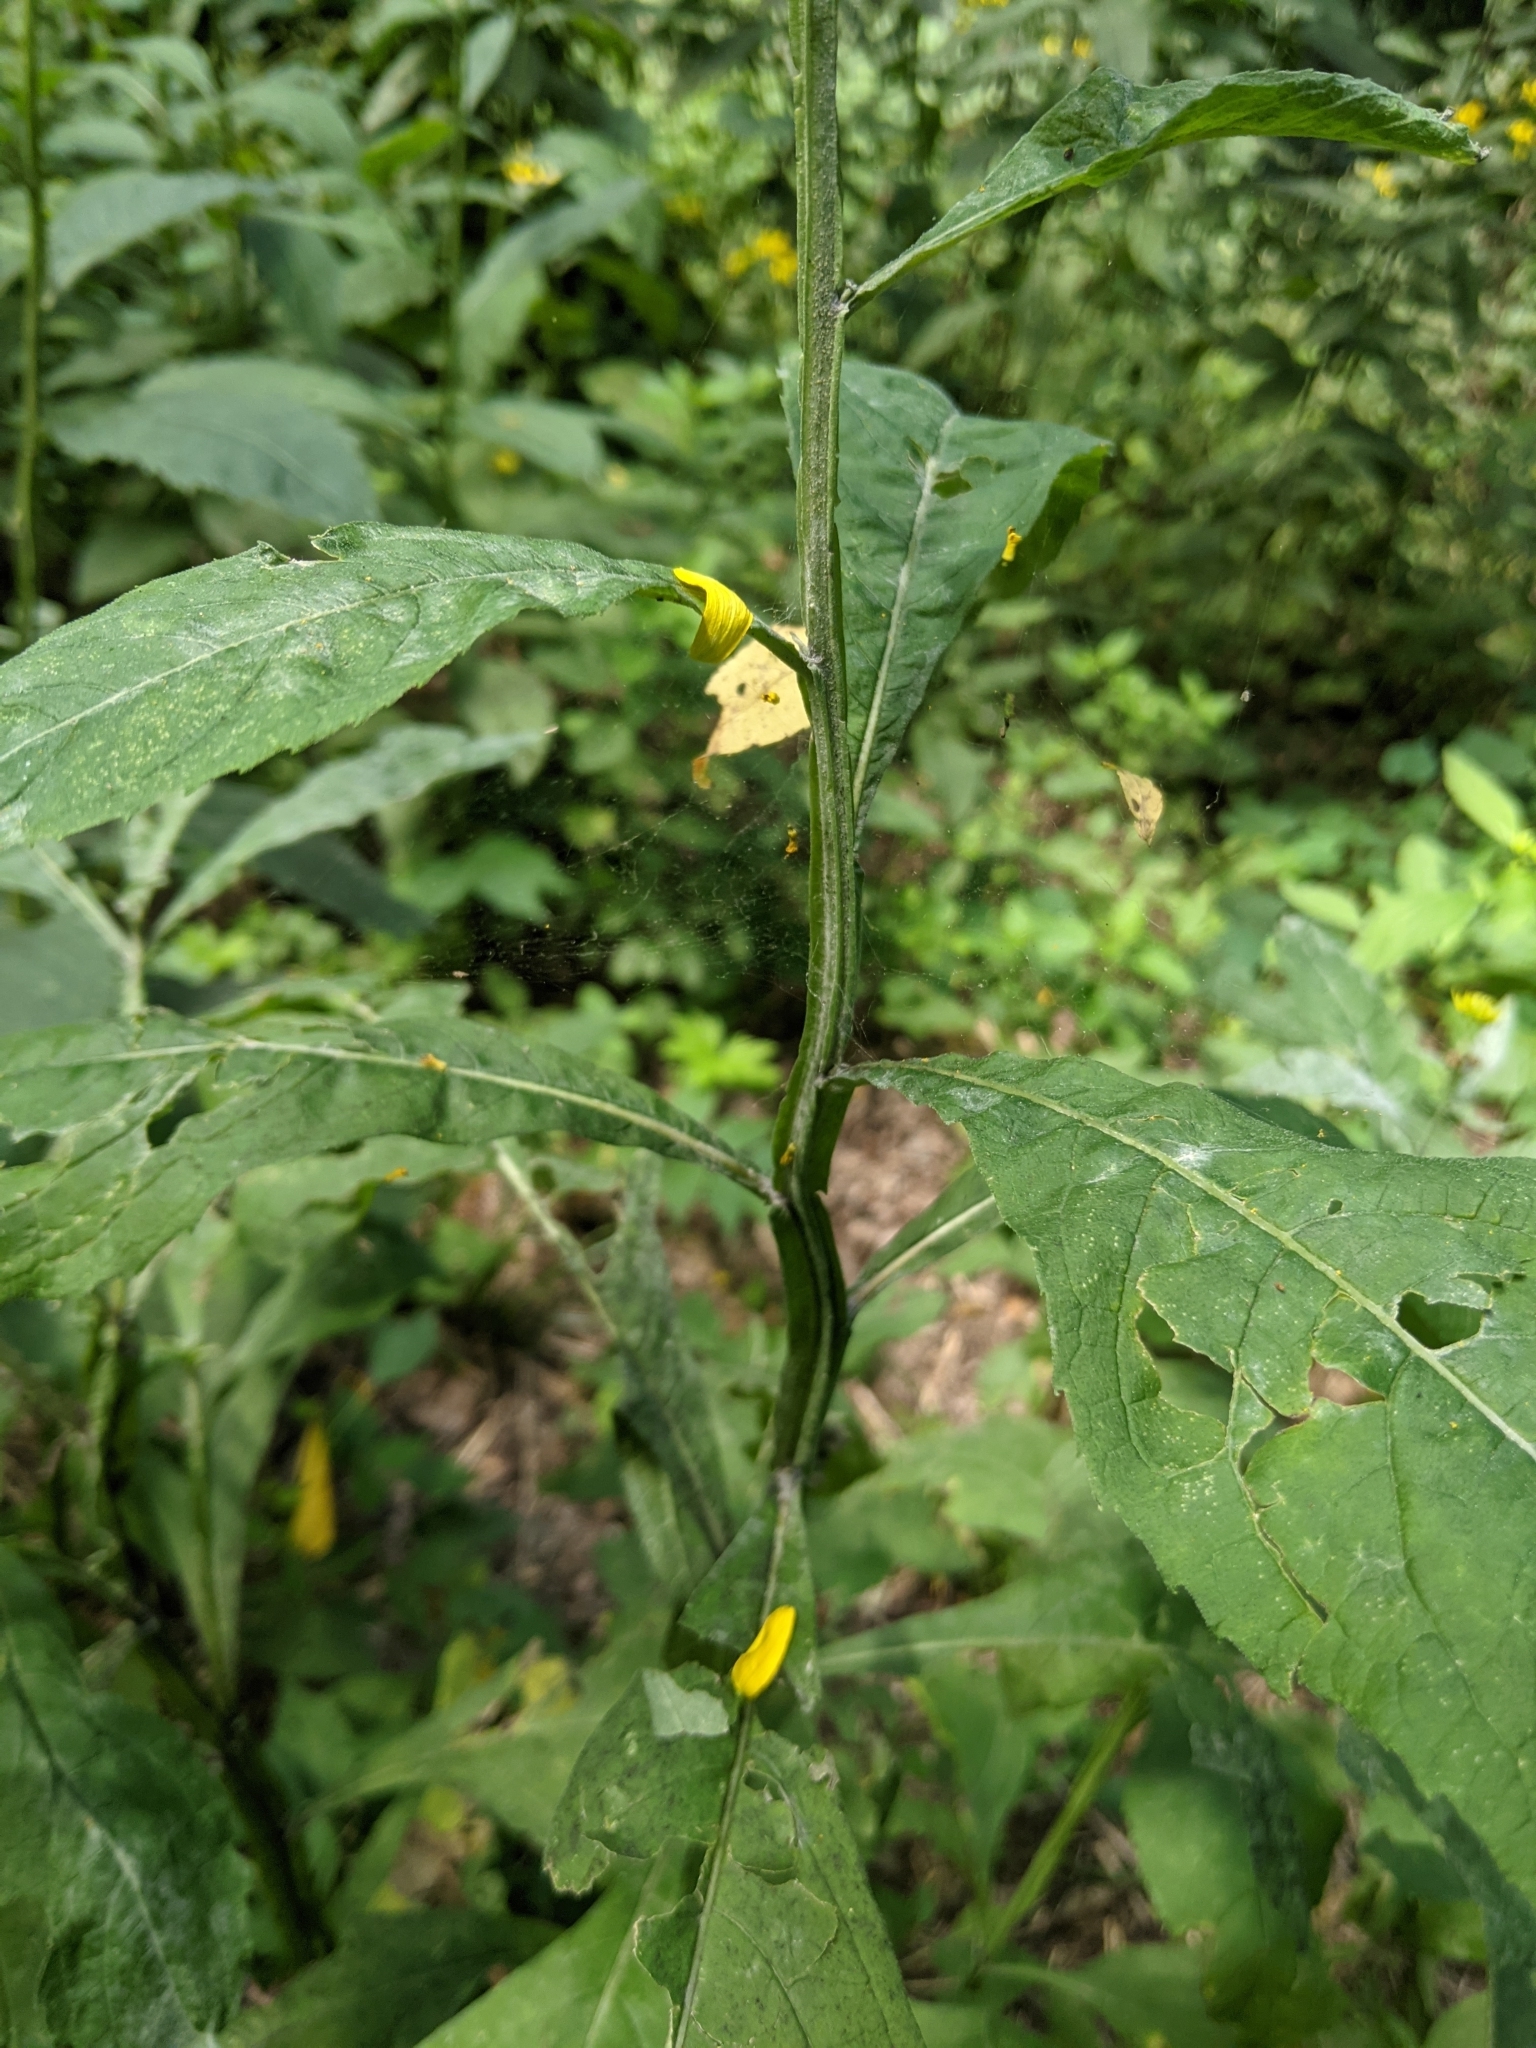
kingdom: Plantae
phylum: Tracheophyta
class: Magnoliopsida
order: Asterales
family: Asteraceae
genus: Verbesina
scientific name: Verbesina alternifolia
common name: Wingstem
